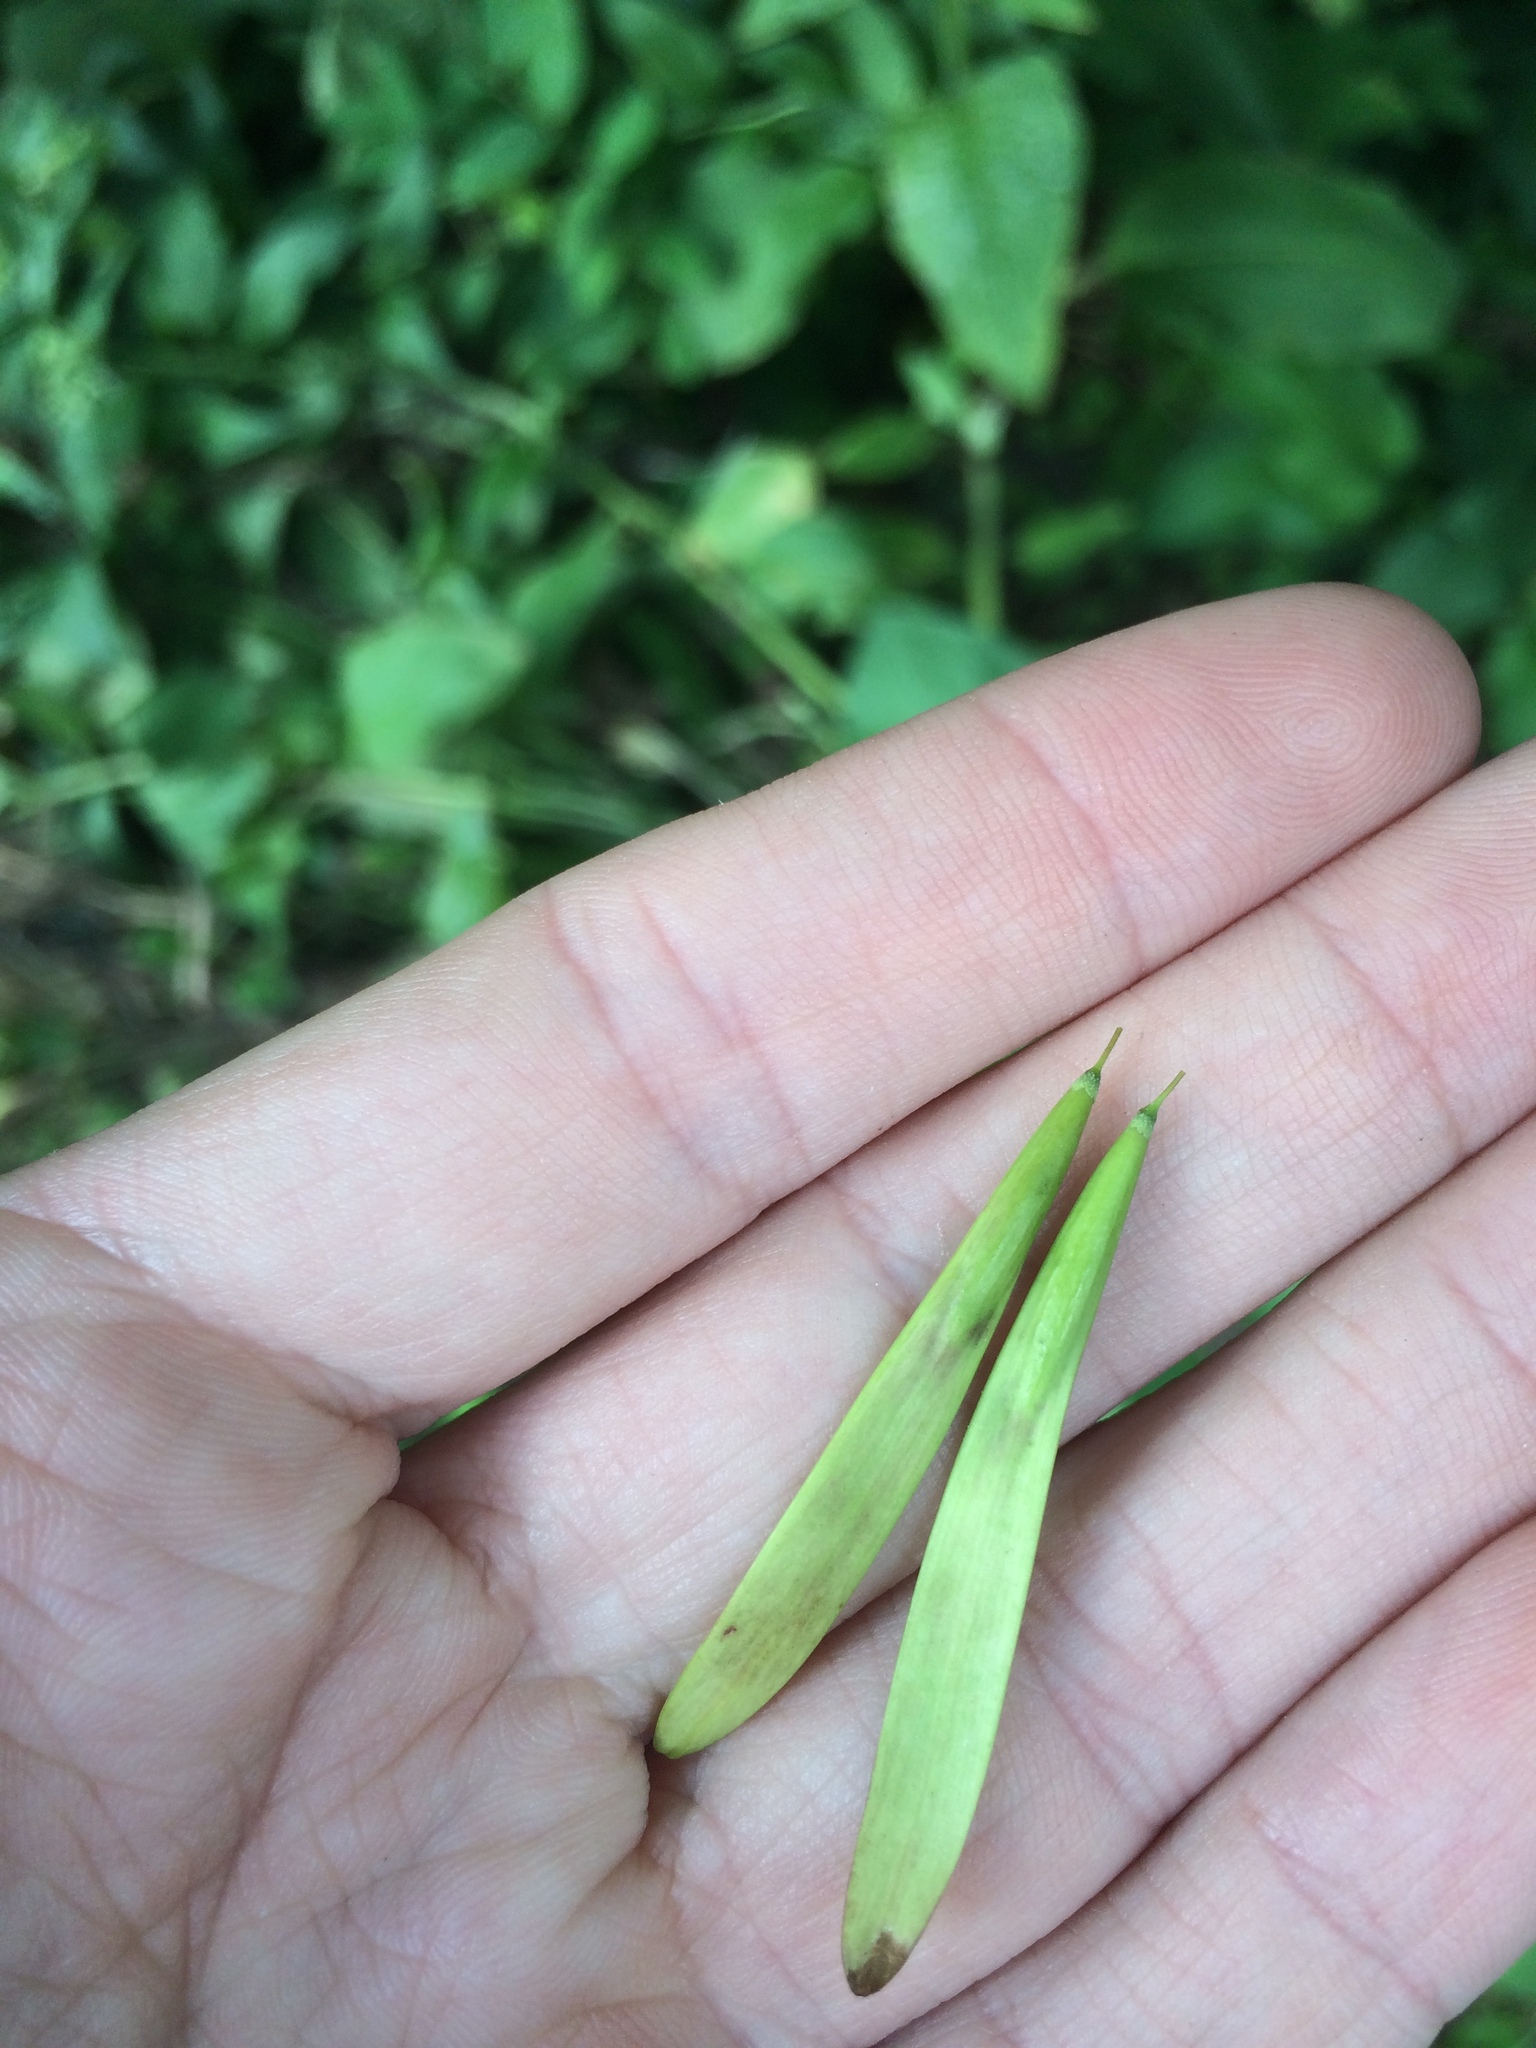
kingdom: Plantae
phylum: Tracheophyta
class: Magnoliopsida
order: Lamiales
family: Oleaceae
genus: Fraxinus
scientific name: Fraxinus americana
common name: White ash
